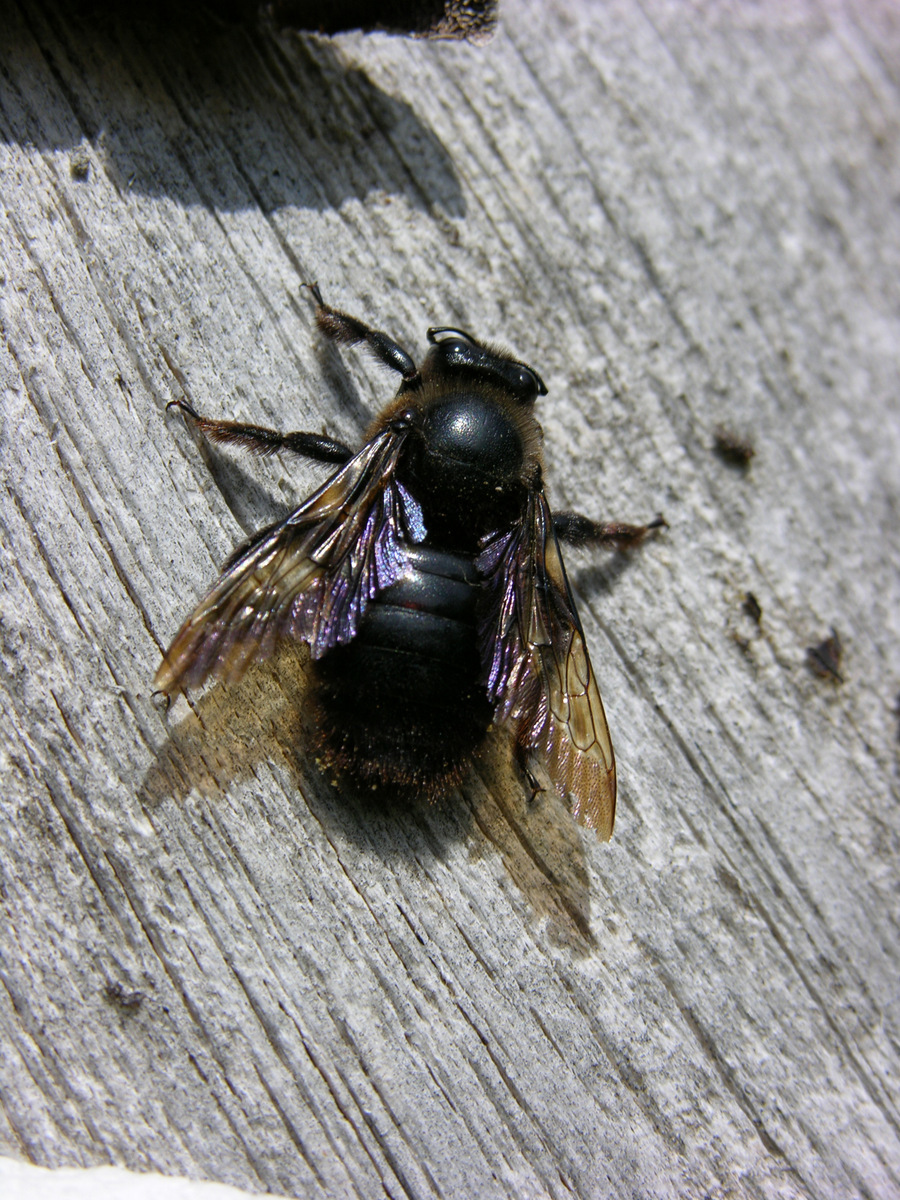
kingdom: Animalia
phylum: Arthropoda
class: Insecta
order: Hymenoptera
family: Apidae
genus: Xylocopa
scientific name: Xylocopa violacea
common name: Violet carpenter bee
